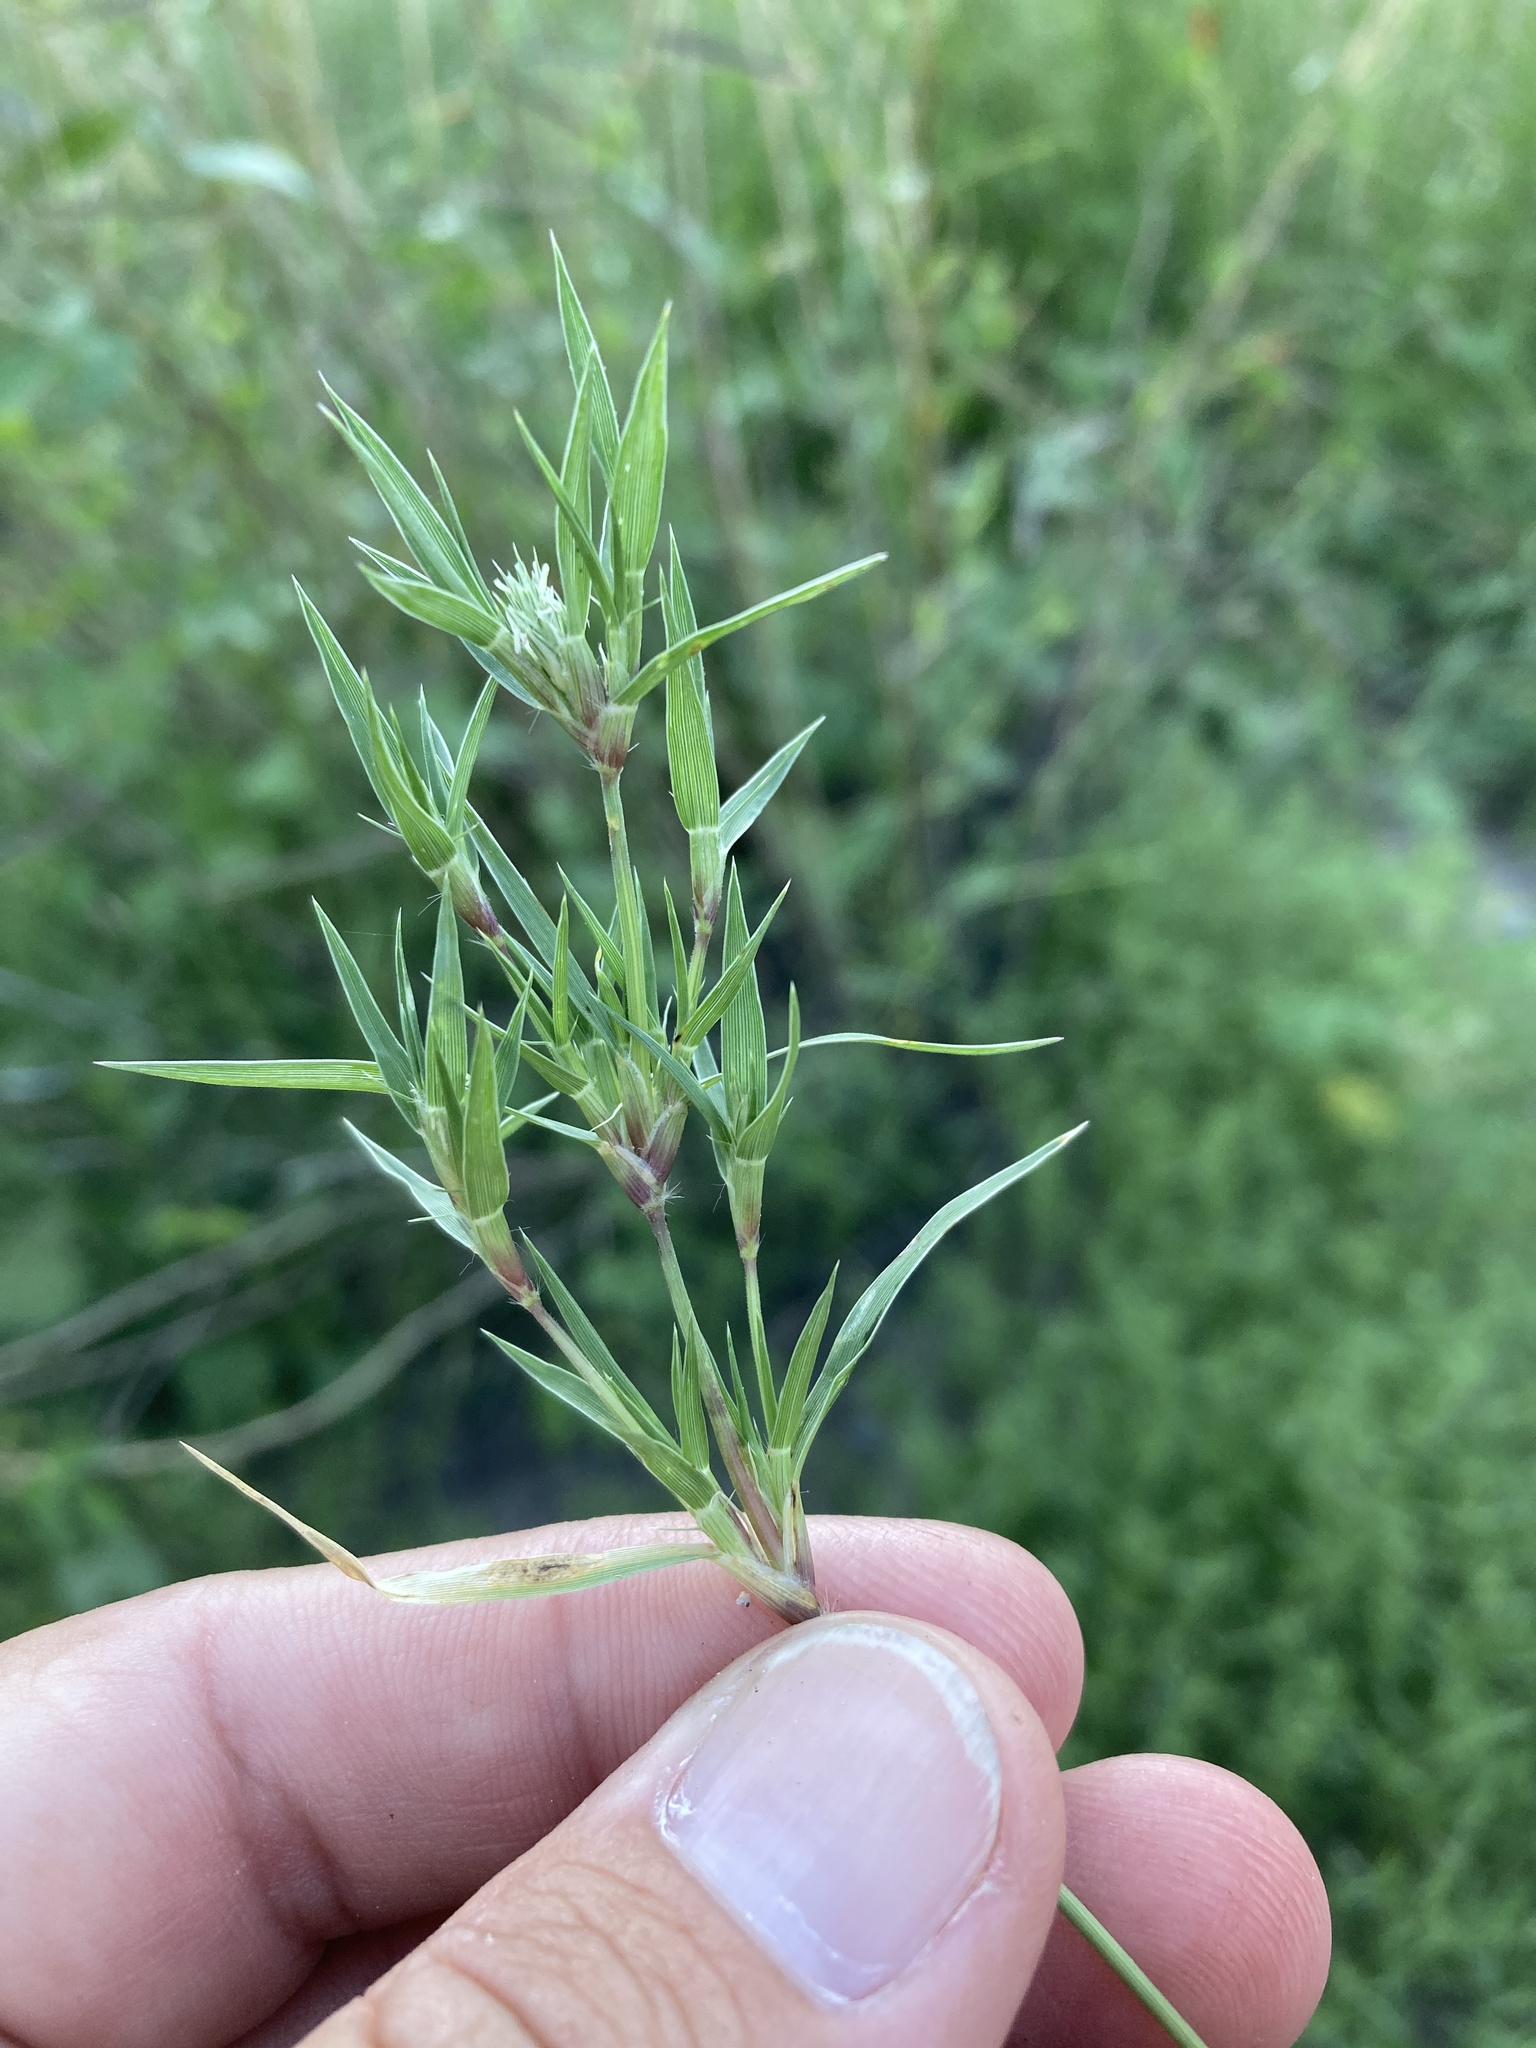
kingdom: Plantae
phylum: Tracheophyta
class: Liliopsida
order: Poales
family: Poaceae
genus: Munroa
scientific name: Munroa squarrosa
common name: False buffalo grass
